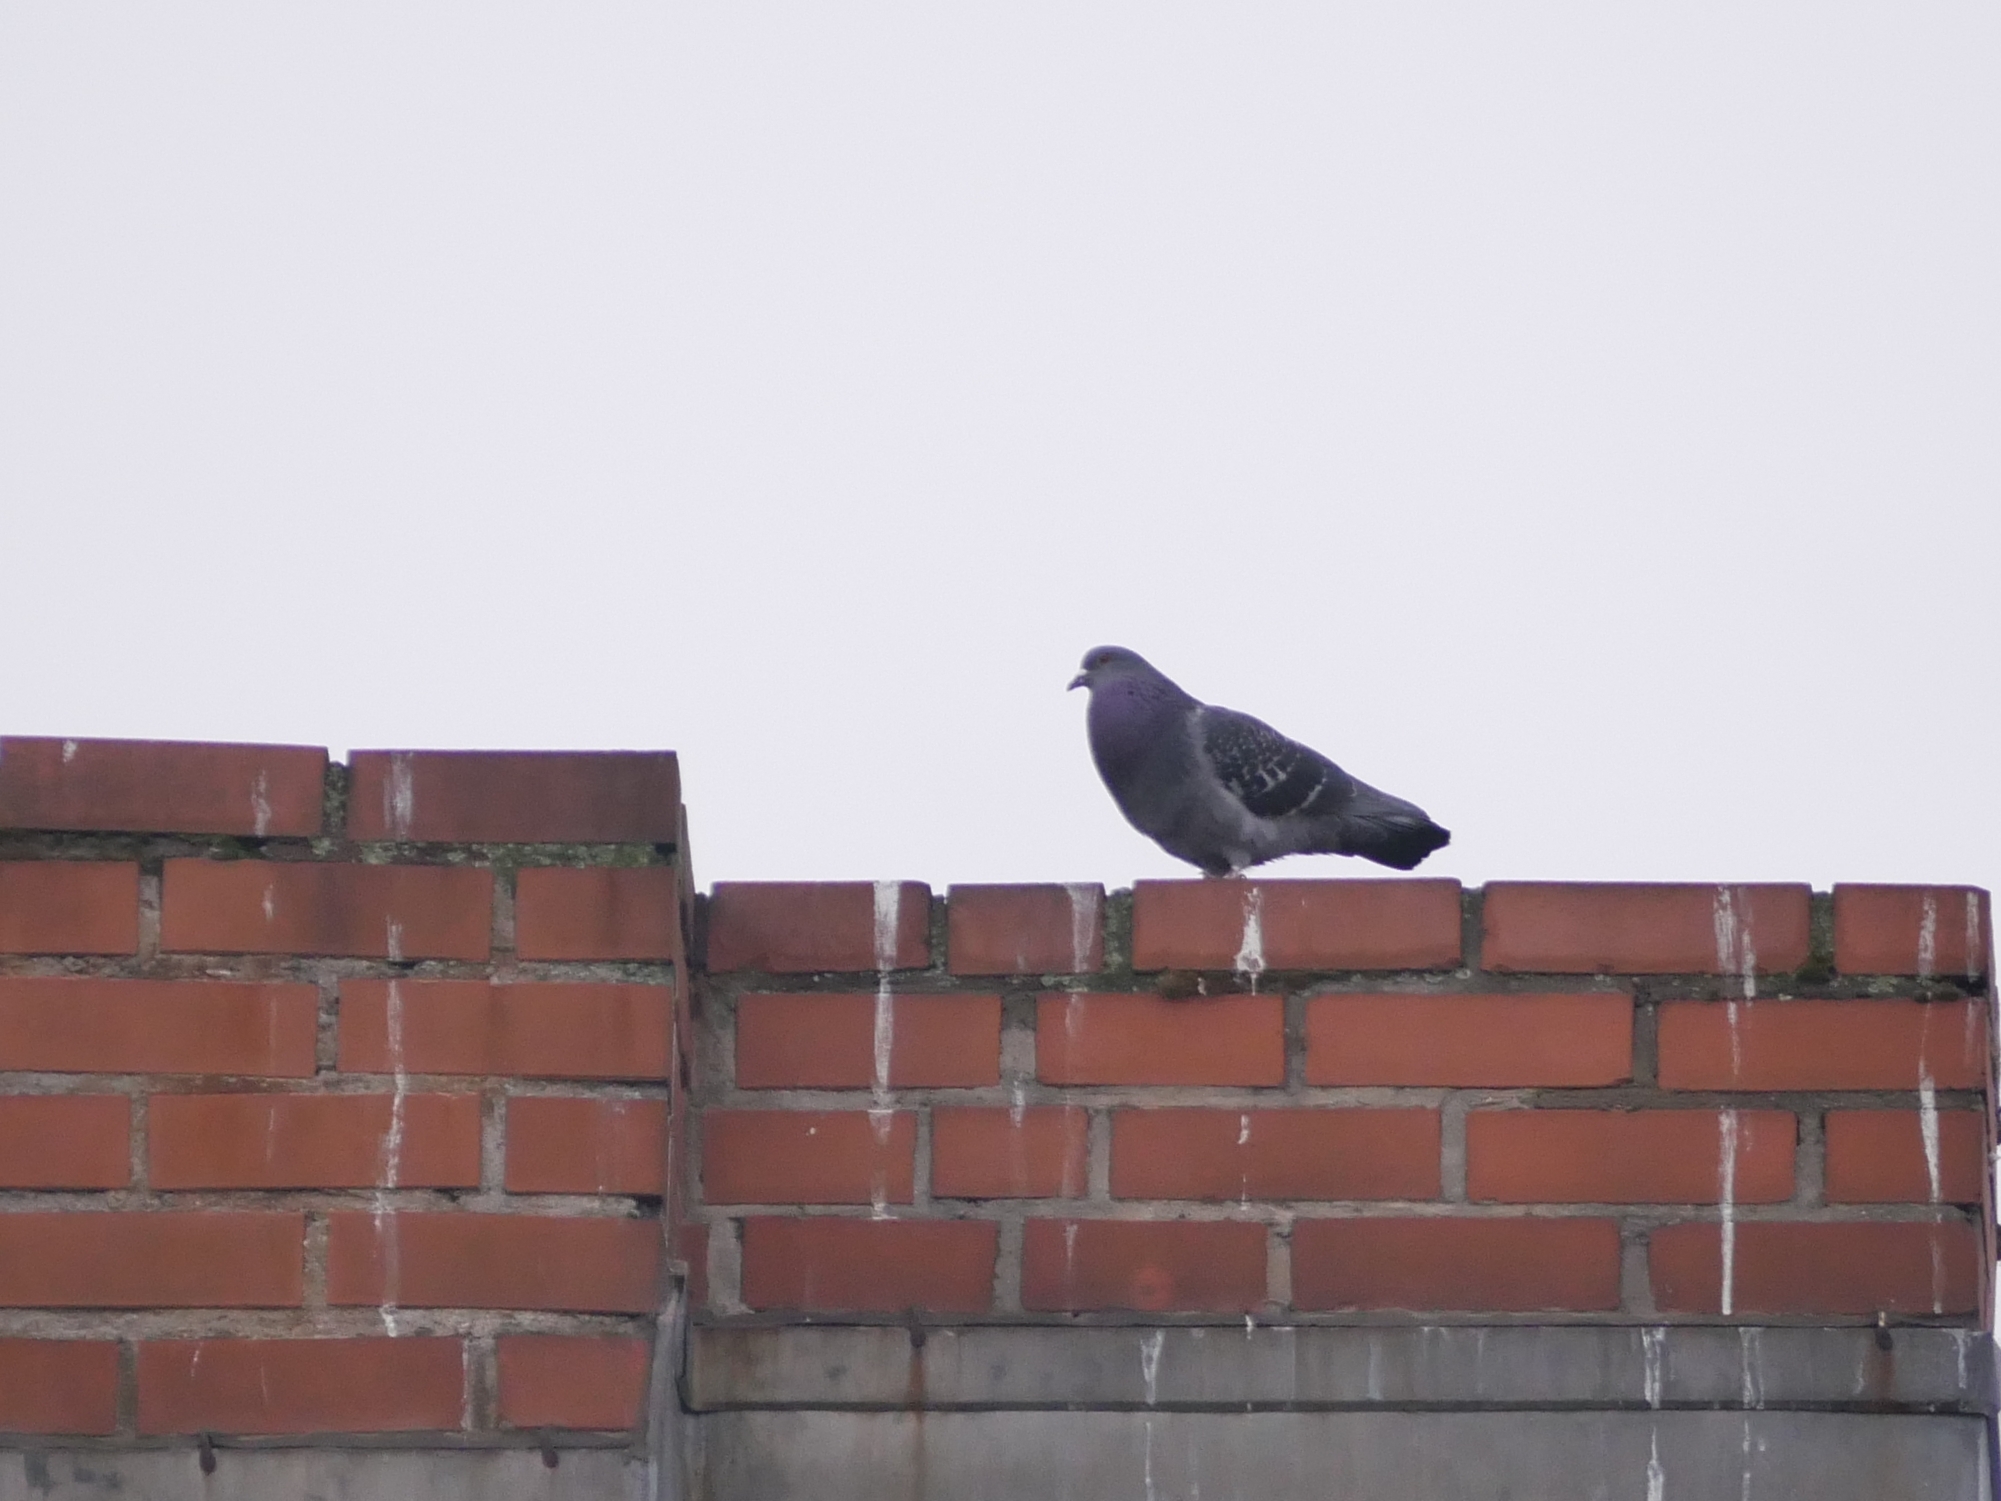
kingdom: Animalia
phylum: Chordata
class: Aves
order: Columbiformes
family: Columbidae
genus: Columba
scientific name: Columba livia
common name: Rock pigeon
